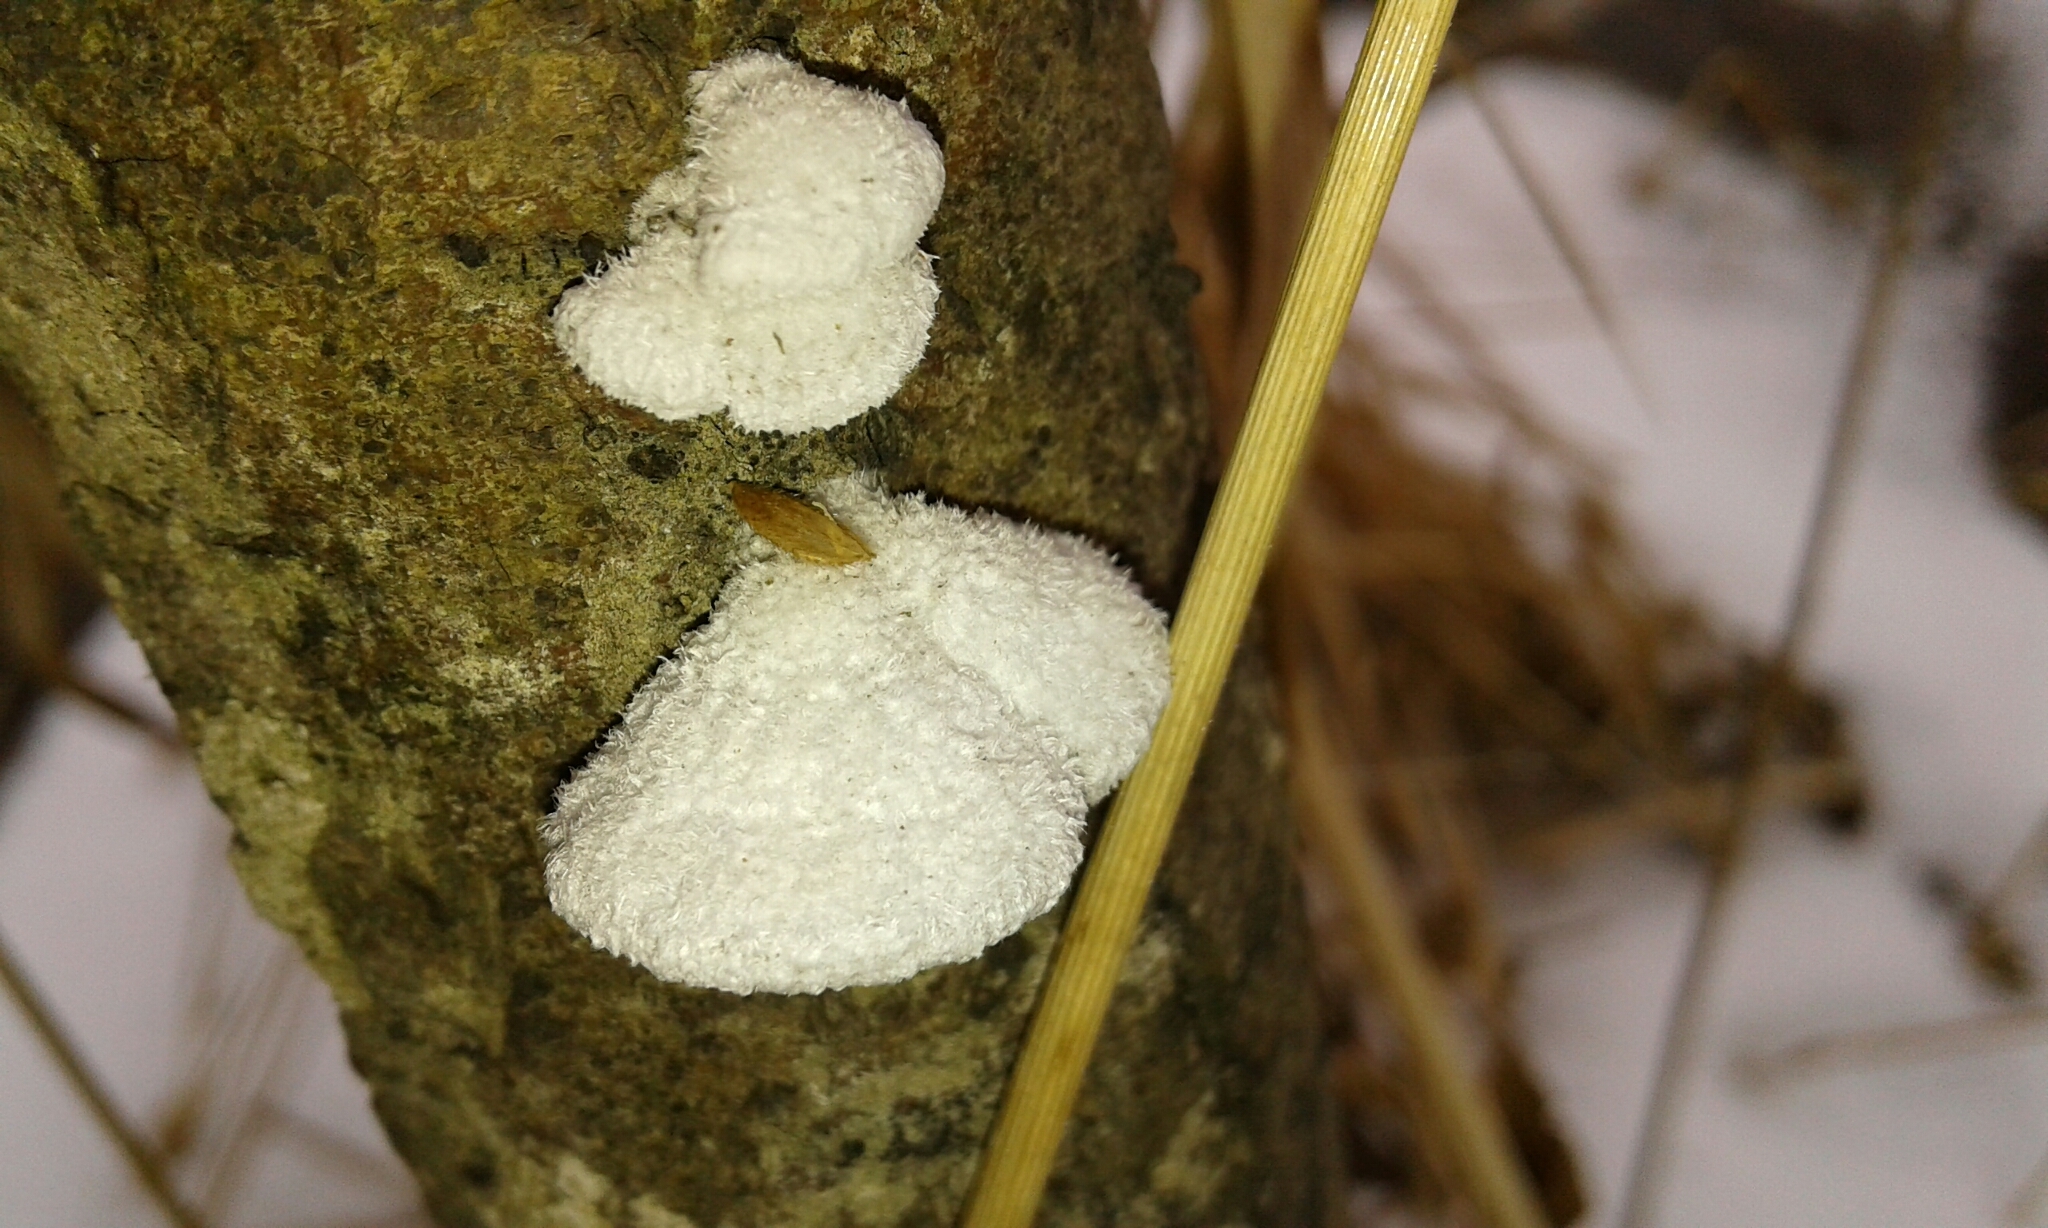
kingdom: Fungi
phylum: Basidiomycota
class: Agaricomycetes
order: Agaricales
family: Schizophyllaceae
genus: Schizophyllum
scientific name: Schizophyllum commune
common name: Common porecrust
